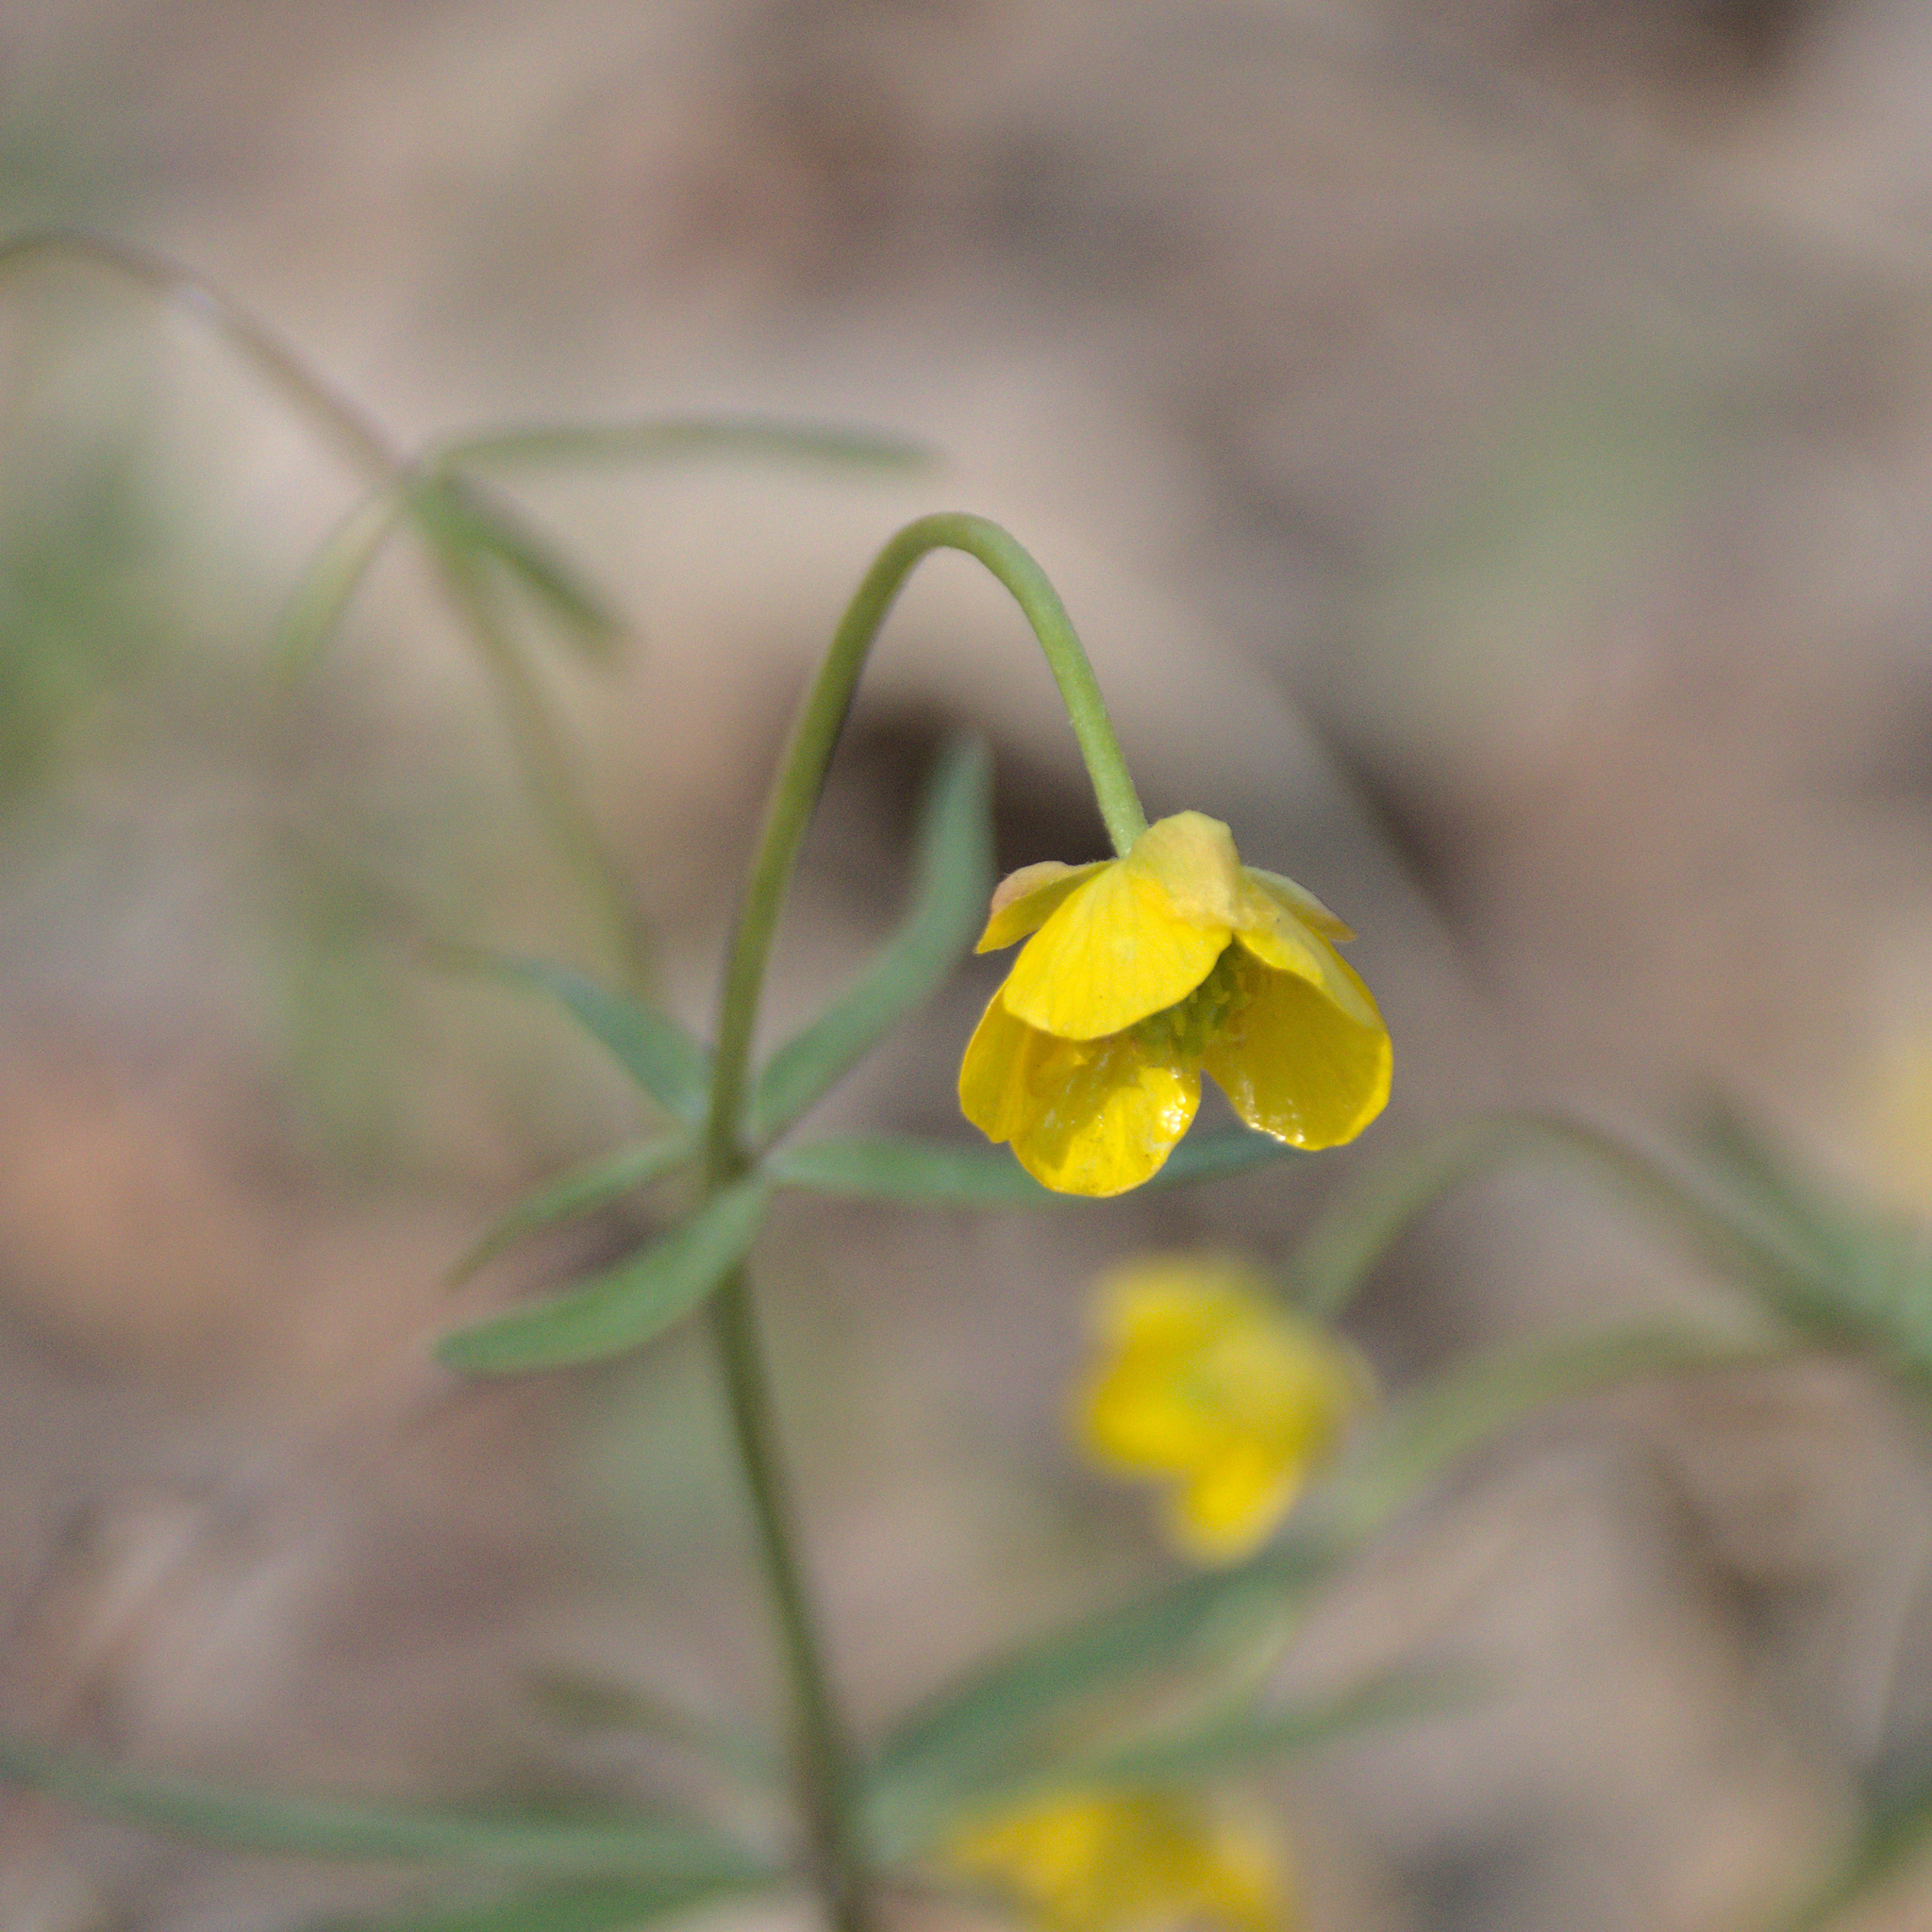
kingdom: Plantae
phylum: Tracheophyta
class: Magnoliopsida
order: Ranunculales
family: Ranunculaceae
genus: Ranunculus
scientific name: Ranunculus monophyllus
